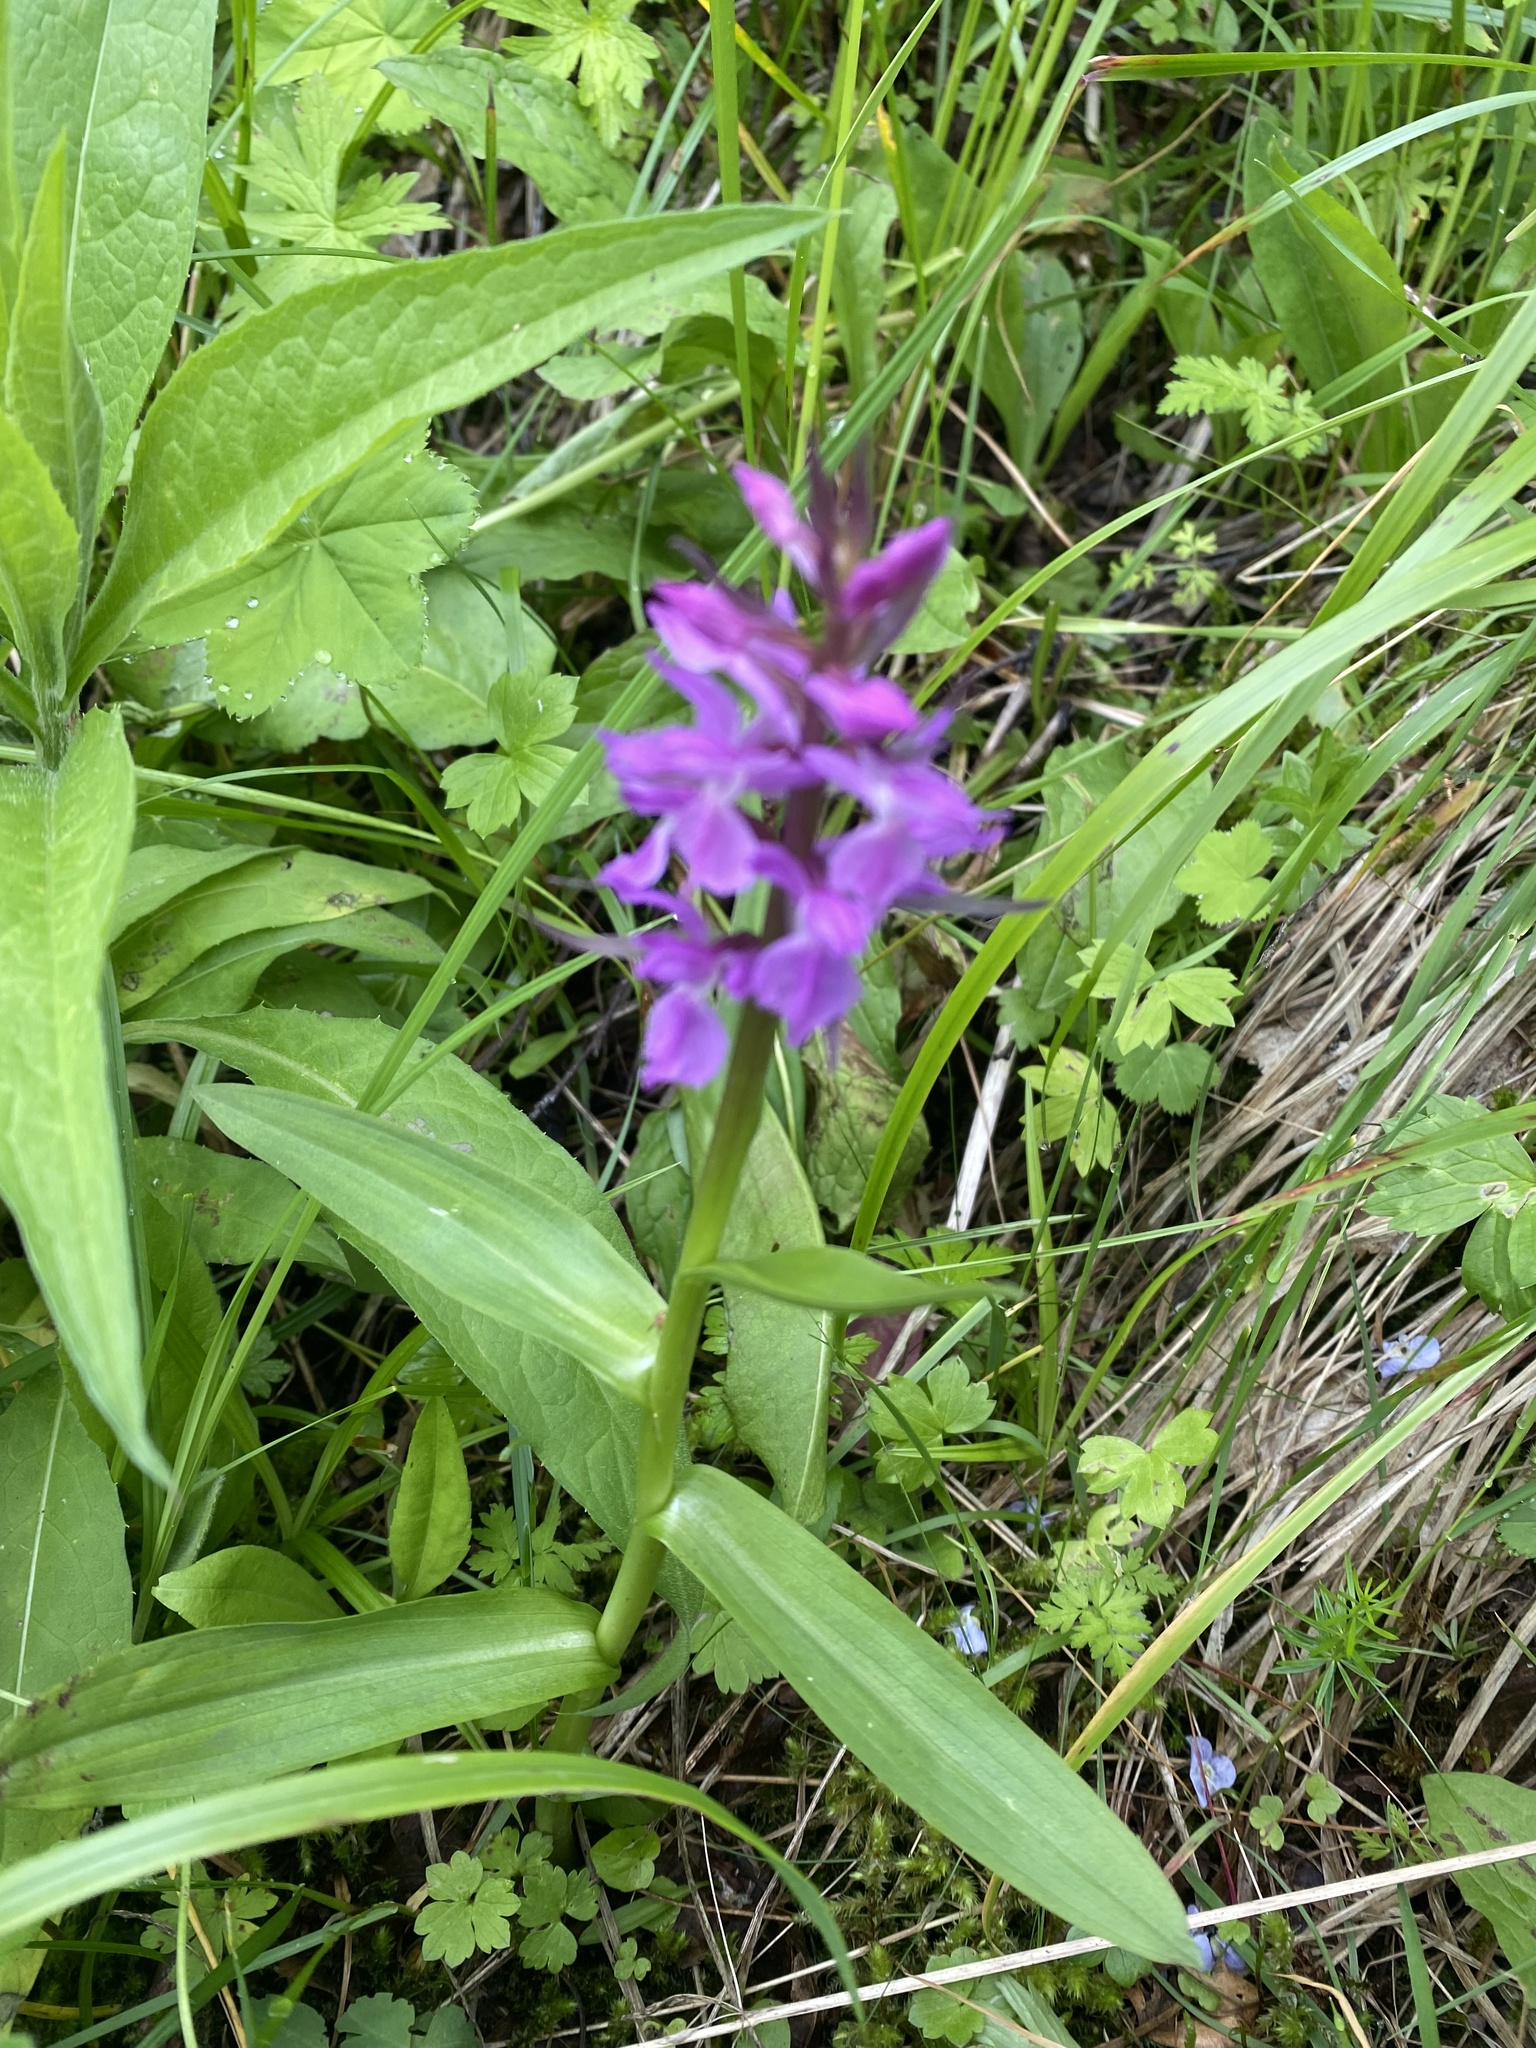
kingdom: Plantae
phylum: Tracheophyta
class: Liliopsida
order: Asparagales
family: Orchidaceae
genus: Dactylorhiza
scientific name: Dactylorhiza euxina
